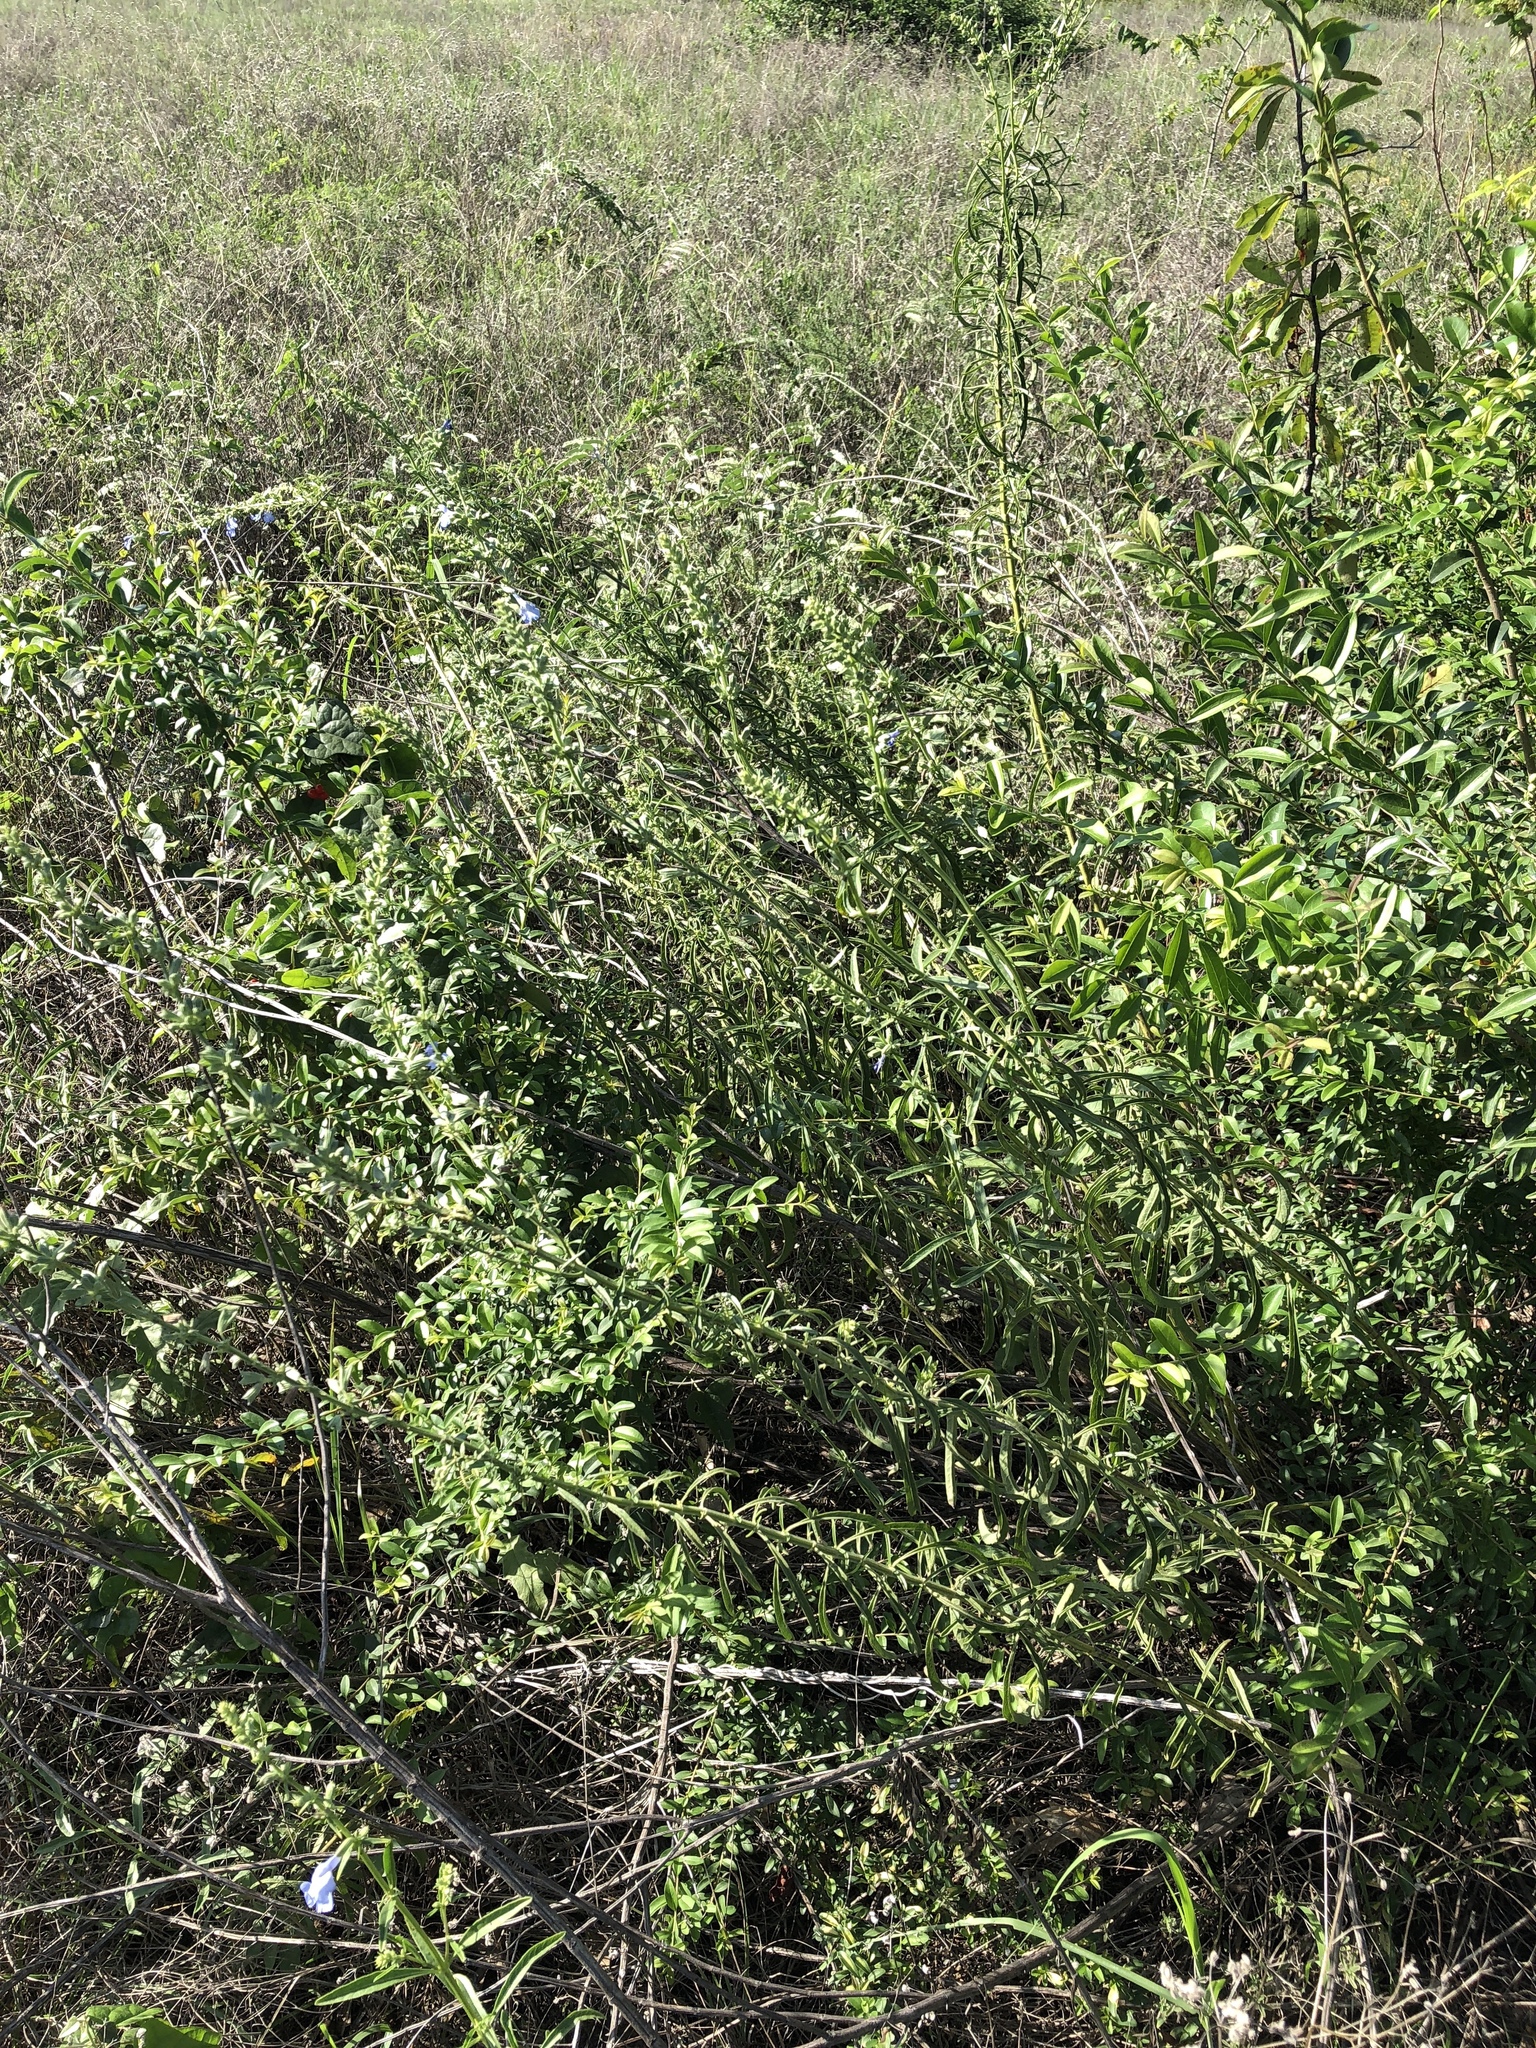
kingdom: Plantae
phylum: Tracheophyta
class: Magnoliopsida
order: Lamiales
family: Lamiaceae
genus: Salvia
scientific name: Salvia azurea
